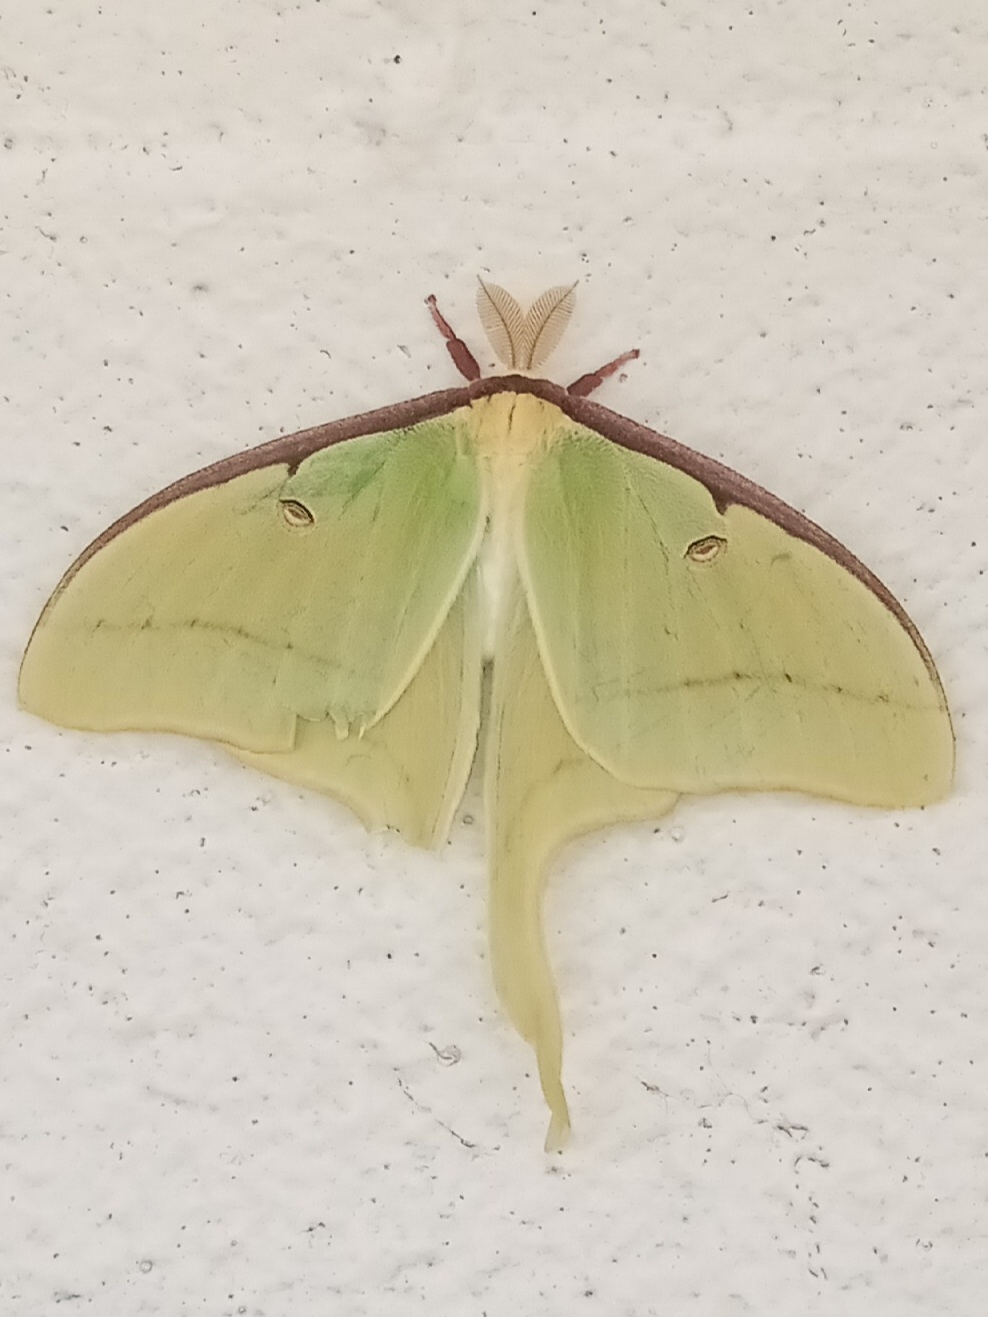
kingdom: Animalia
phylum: Arthropoda
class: Insecta
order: Lepidoptera
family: Saturniidae
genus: Actias
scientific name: Actias luna
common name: Luna moth
